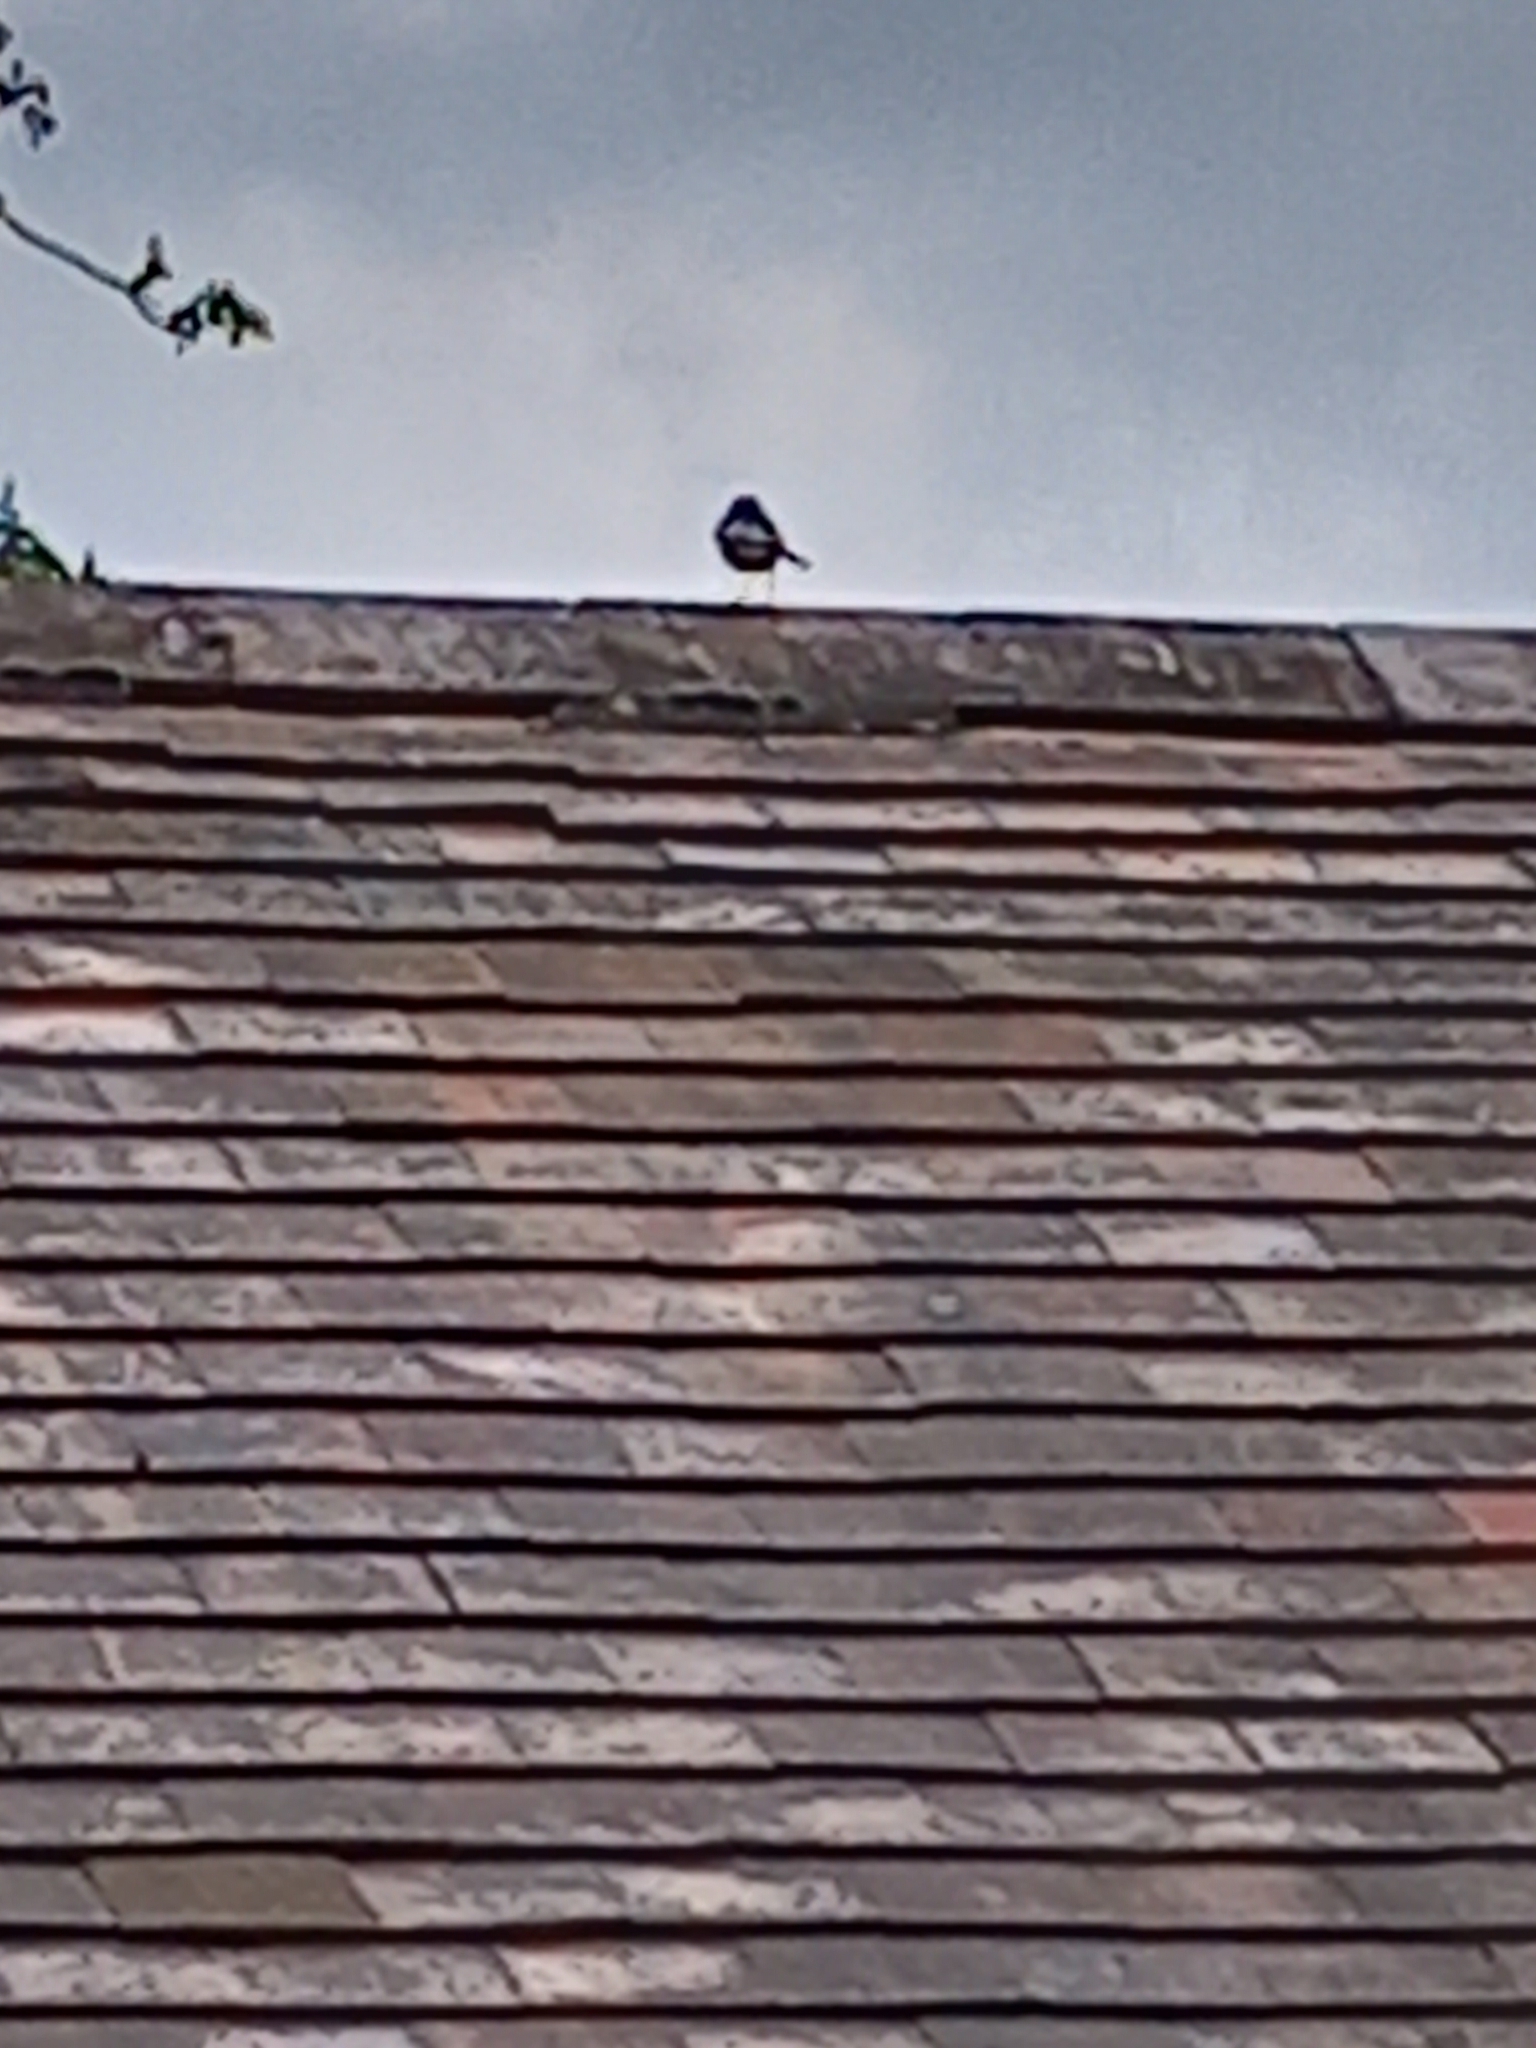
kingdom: Animalia
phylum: Chordata
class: Aves
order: Passeriformes
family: Motacillidae
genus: Motacilla
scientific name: Motacilla alba
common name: White wagtail
